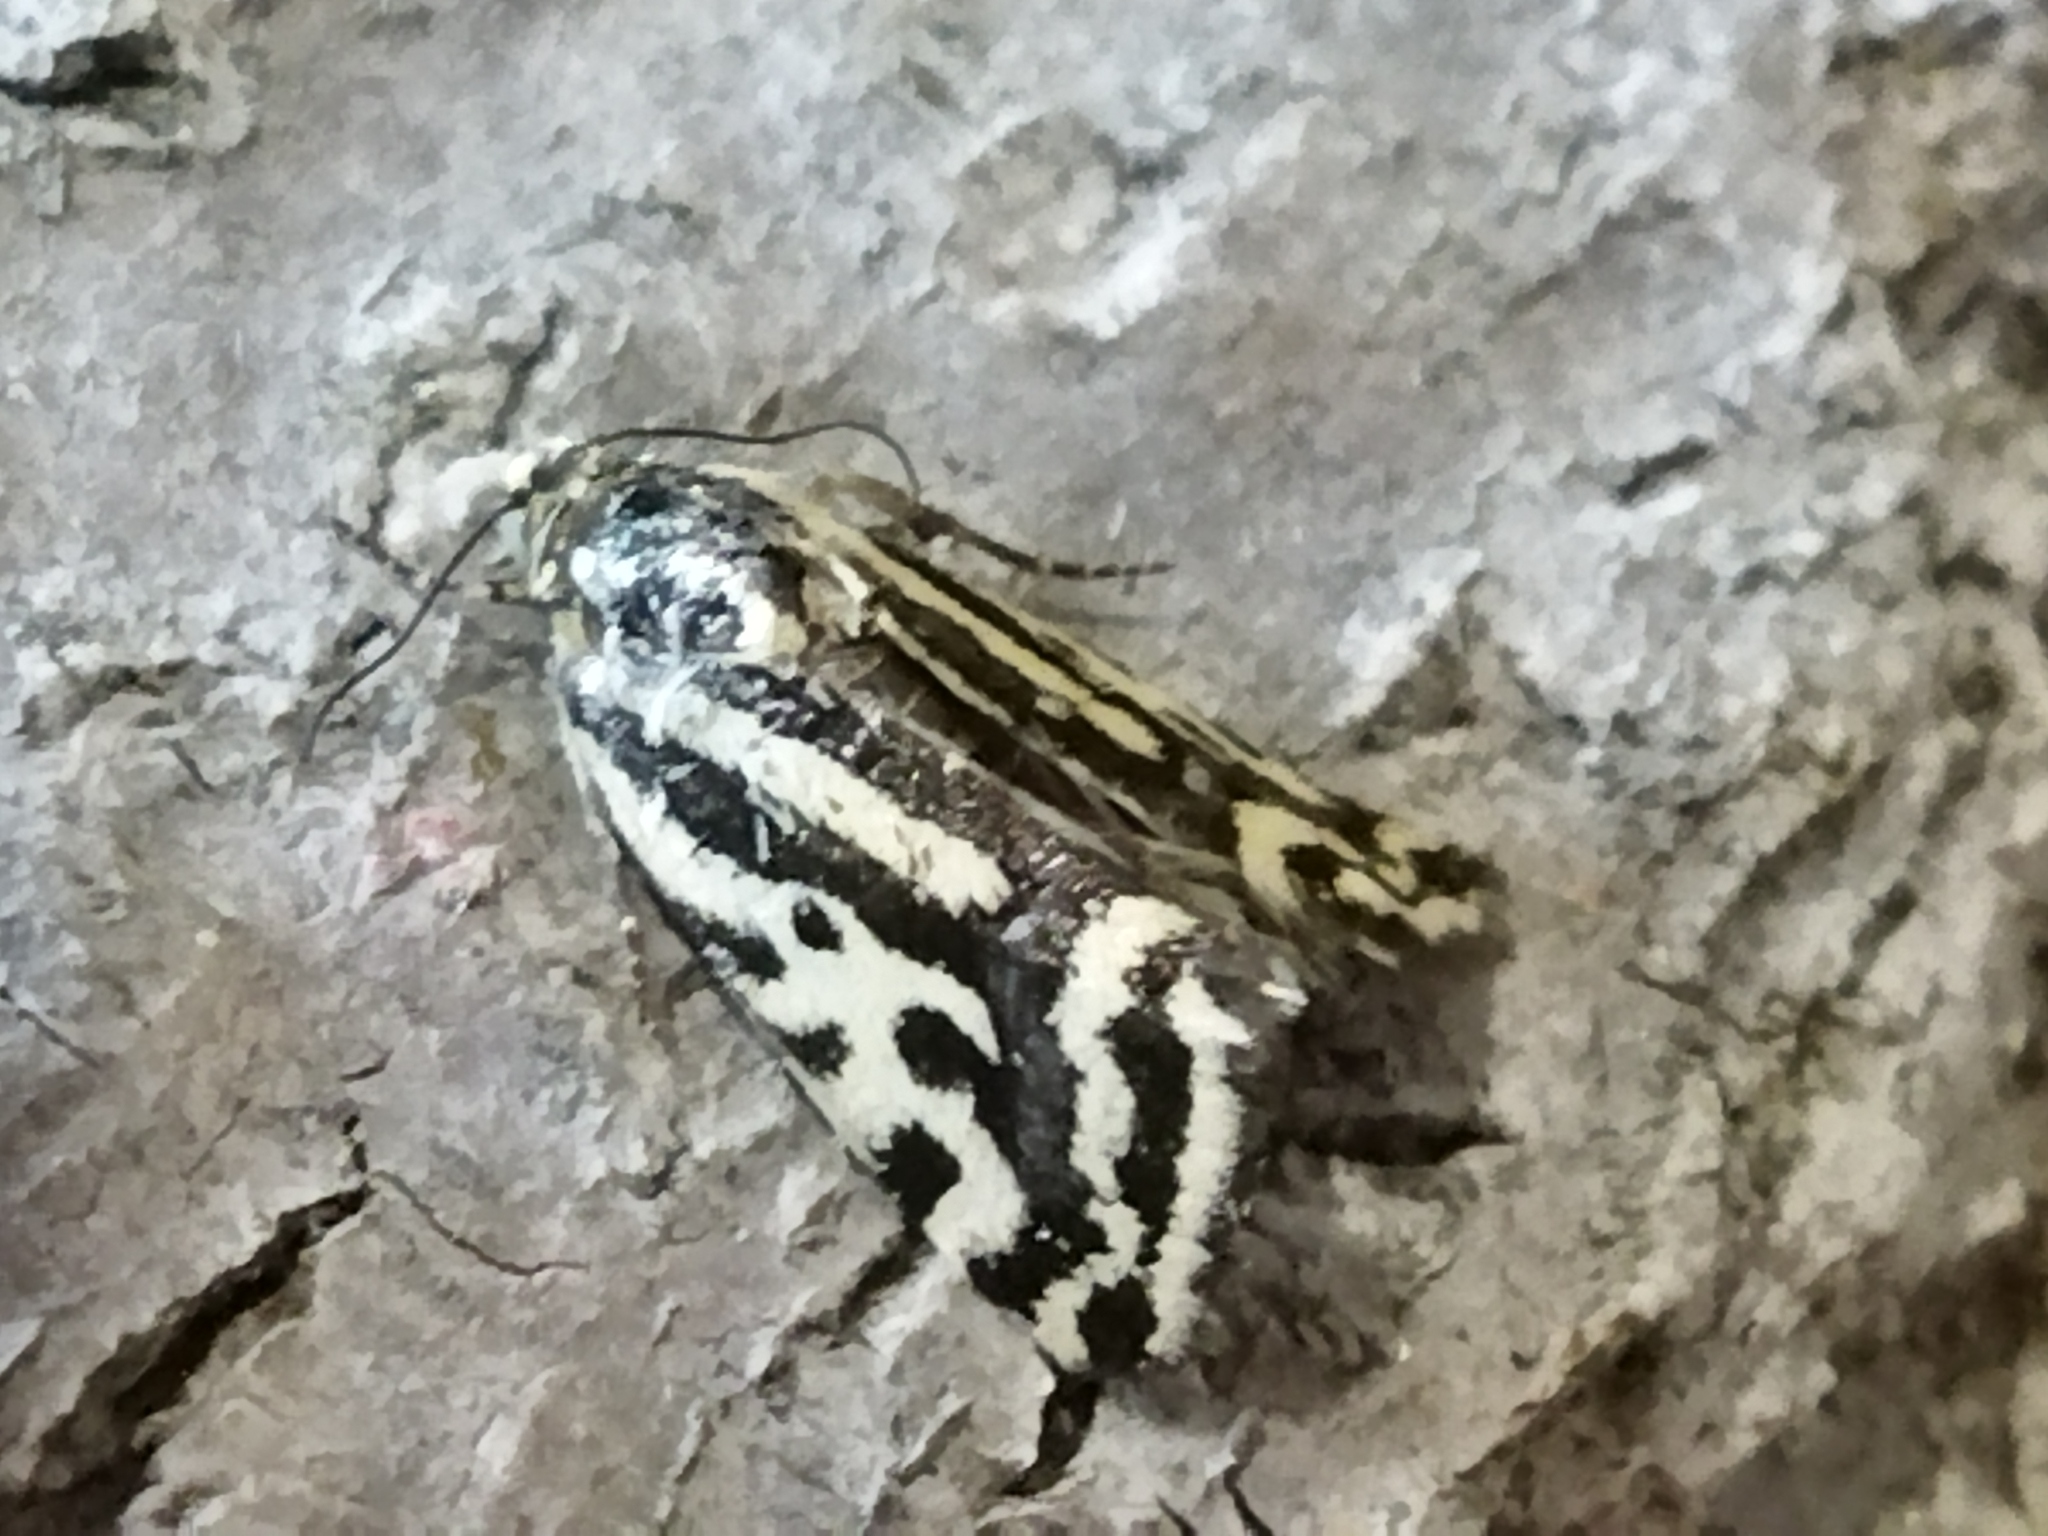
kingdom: Animalia
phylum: Arthropoda
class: Insecta
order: Lepidoptera
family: Noctuidae
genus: Acontia
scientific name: Acontia trabealis
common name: Spotted sulphur
